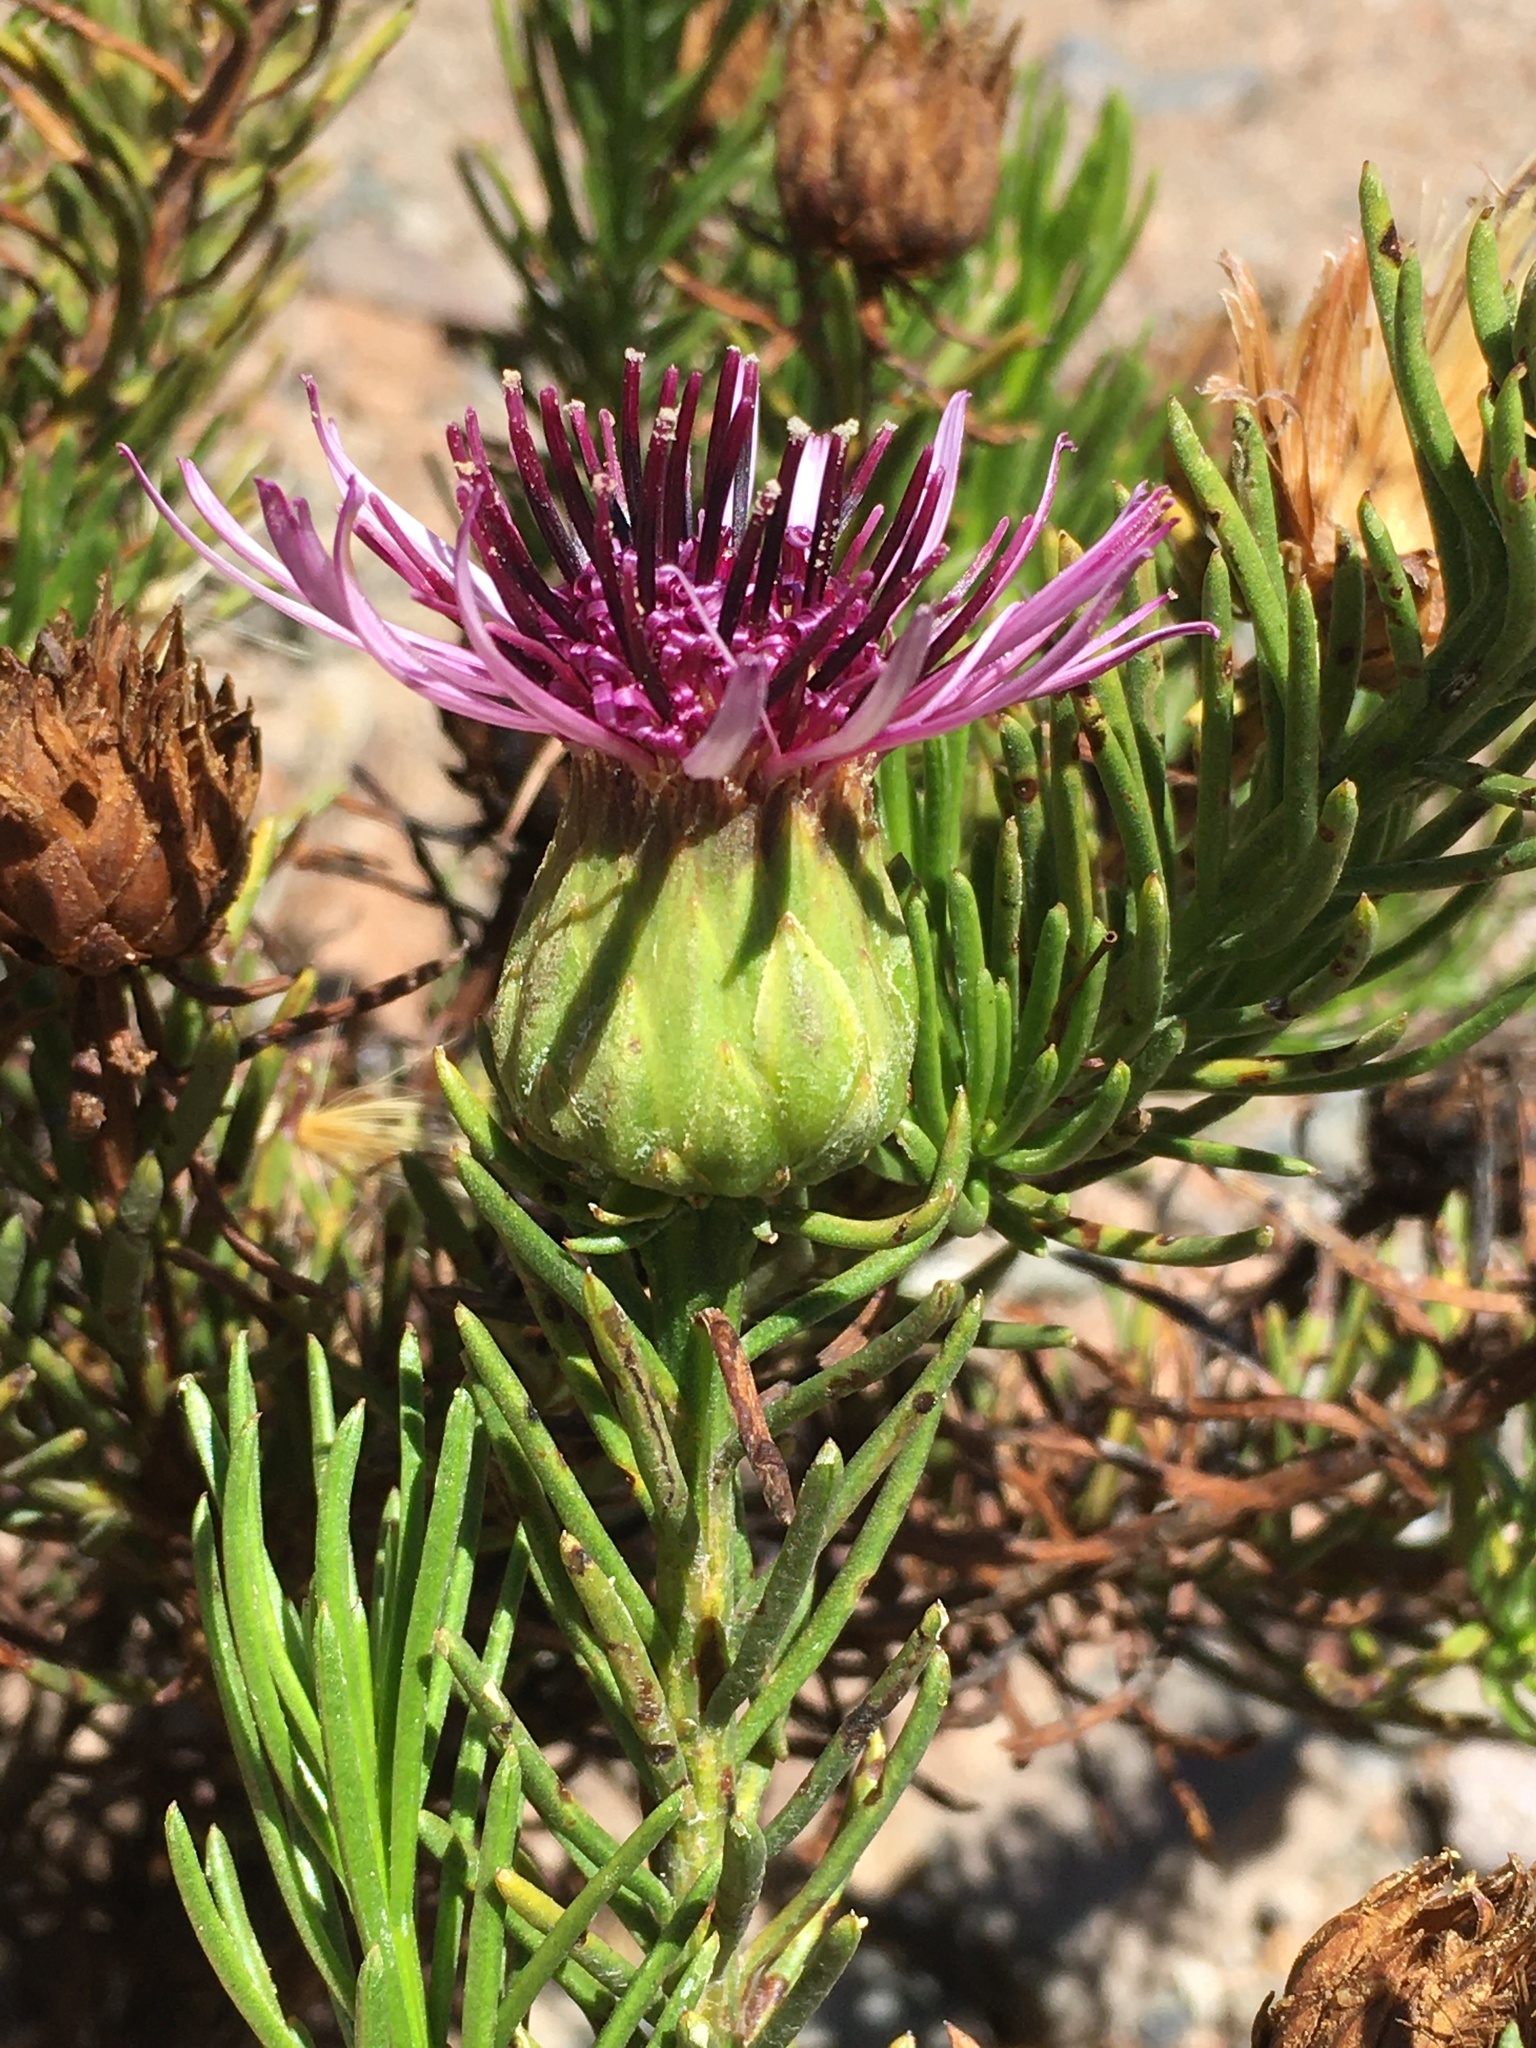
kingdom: Plantae
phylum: Tracheophyta
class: Magnoliopsida
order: Asterales
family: Asteraceae
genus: Gypothamnium
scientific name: Gypothamnium pinifolium
